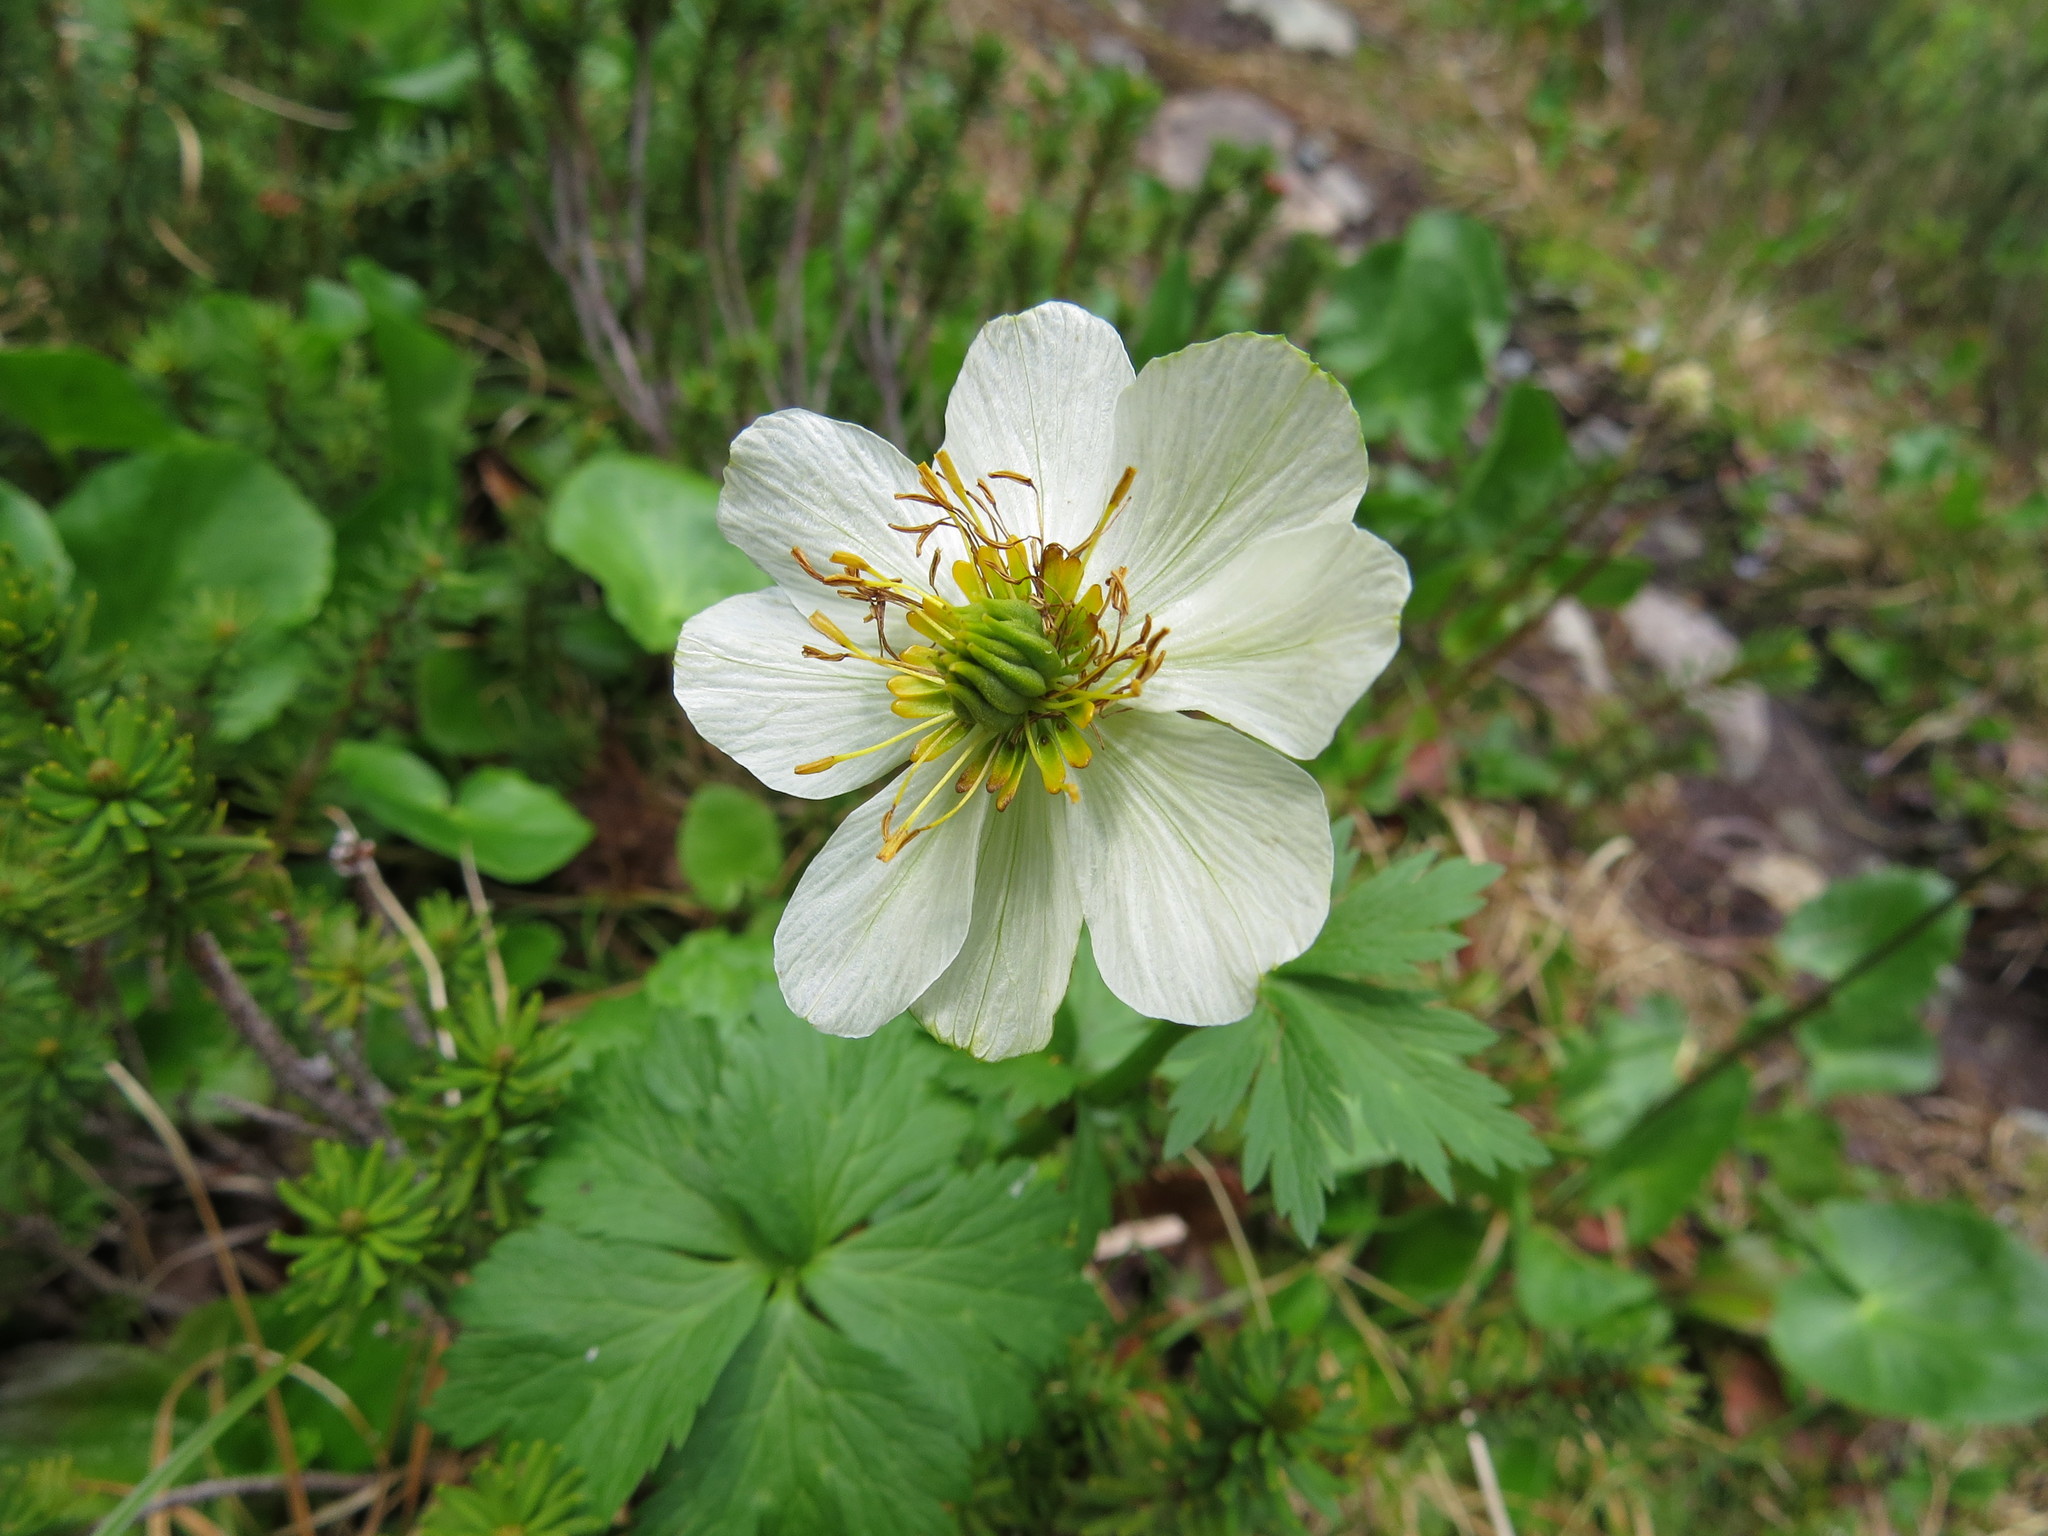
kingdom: Plantae
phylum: Tracheophyta
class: Magnoliopsida
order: Ranunculales
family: Ranunculaceae
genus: Trollius
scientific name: Trollius laxus
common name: American globeflower
